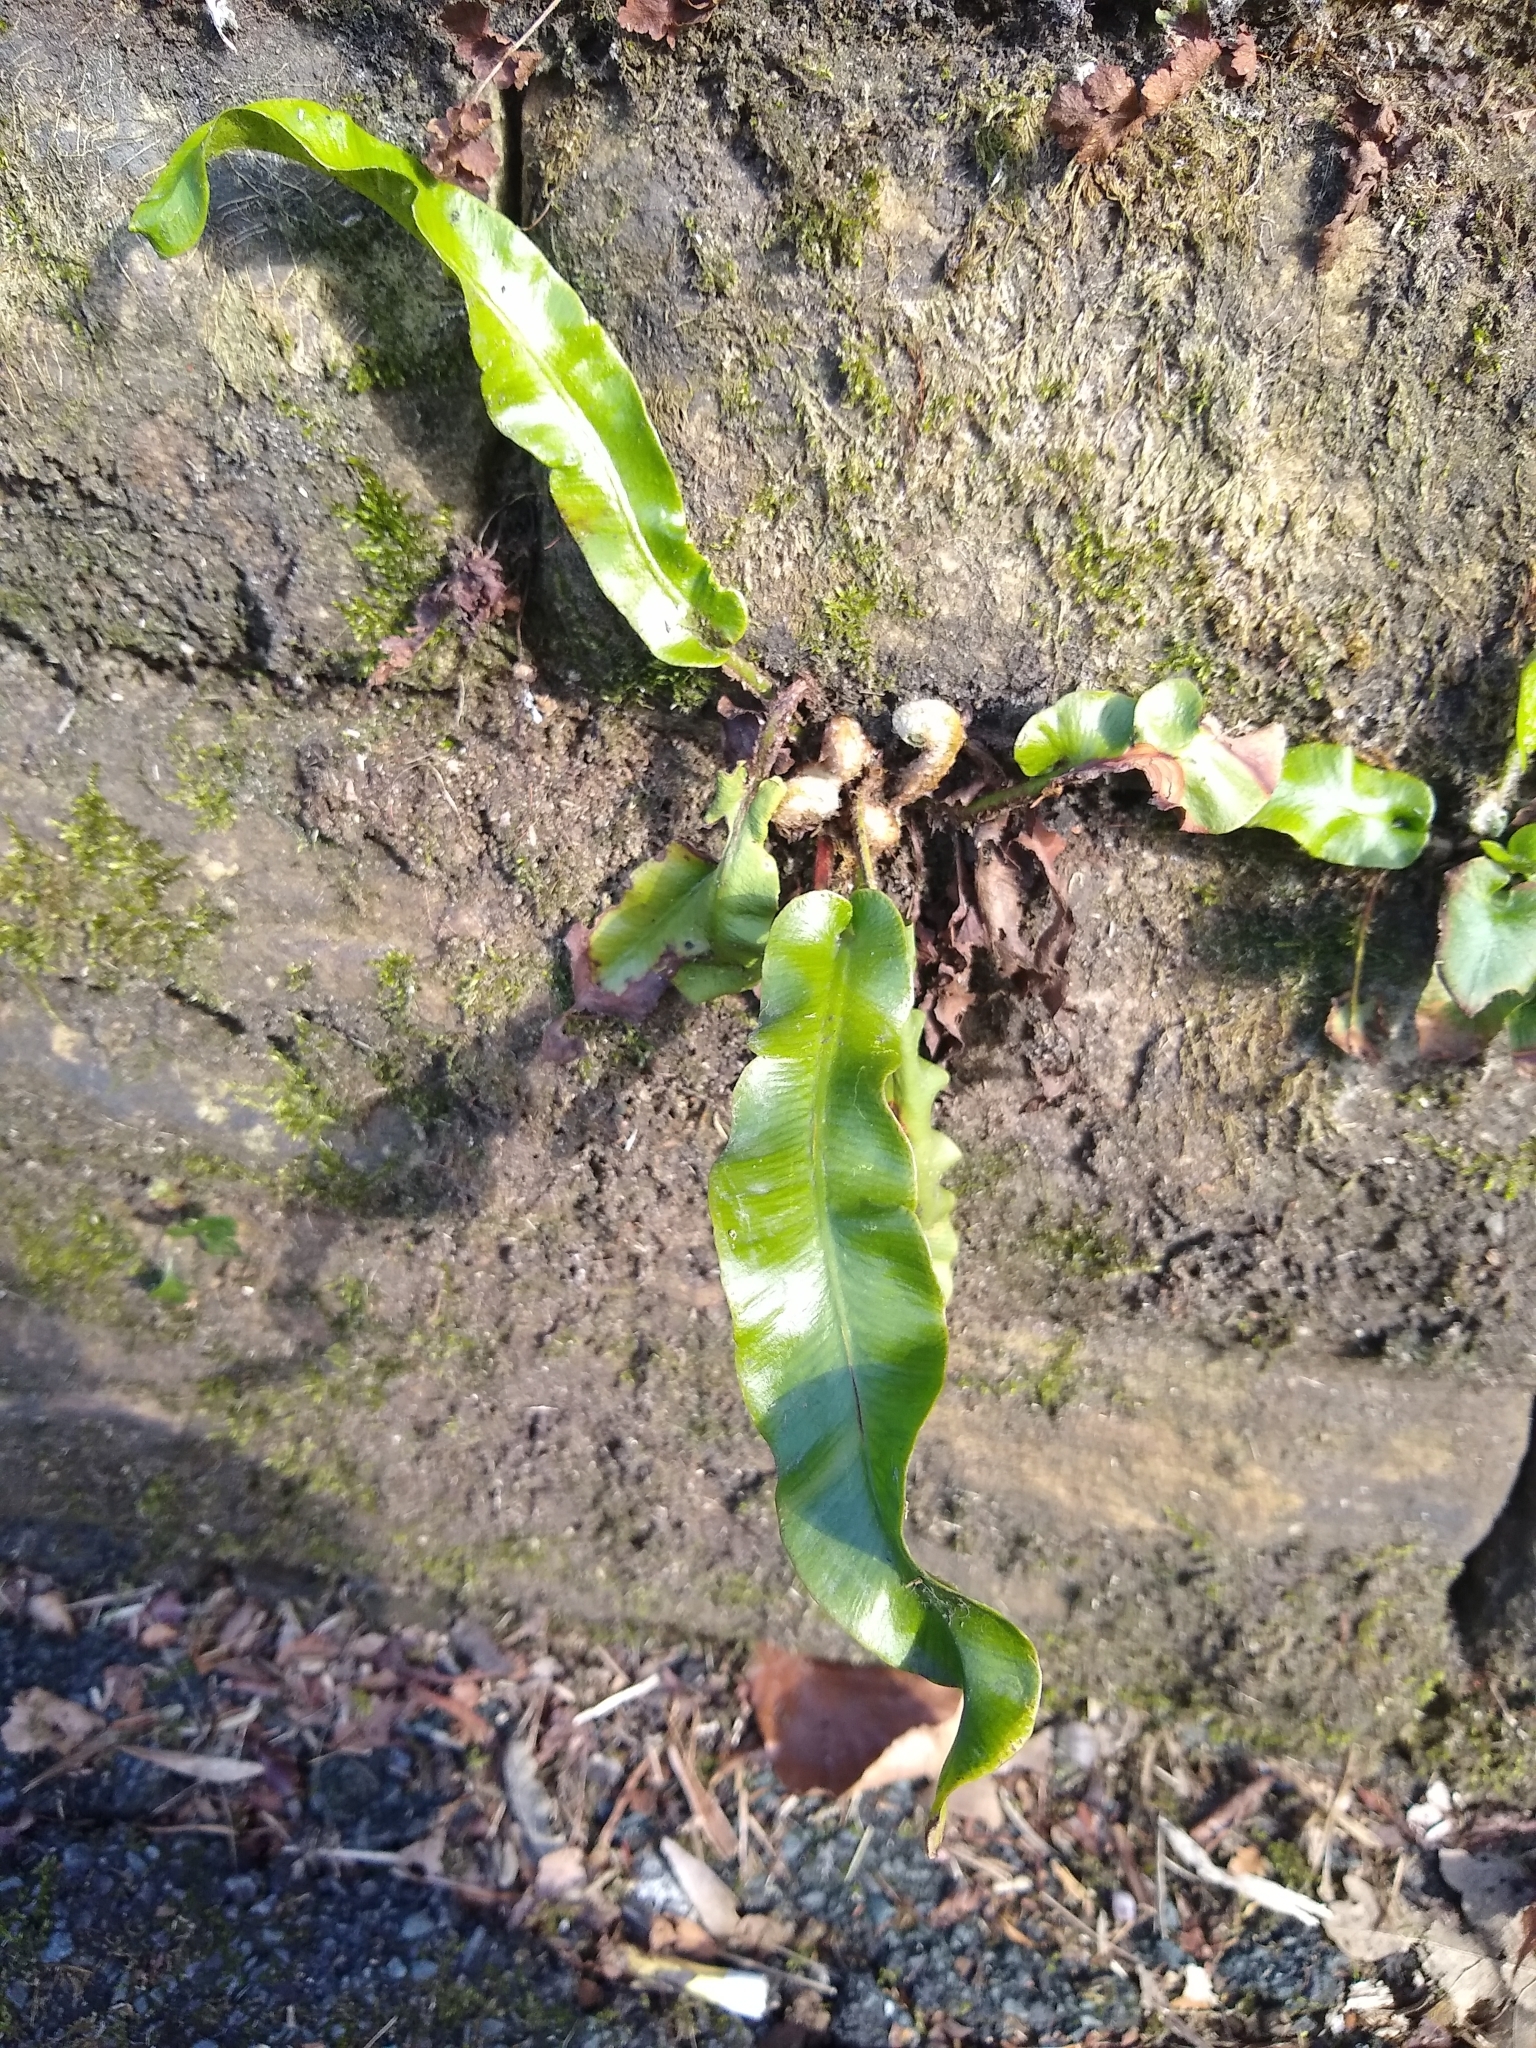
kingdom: Plantae
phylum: Tracheophyta
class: Polypodiopsida
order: Polypodiales
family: Aspleniaceae
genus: Asplenium
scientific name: Asplenium scolopendrium
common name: Hart's-tongue fern
